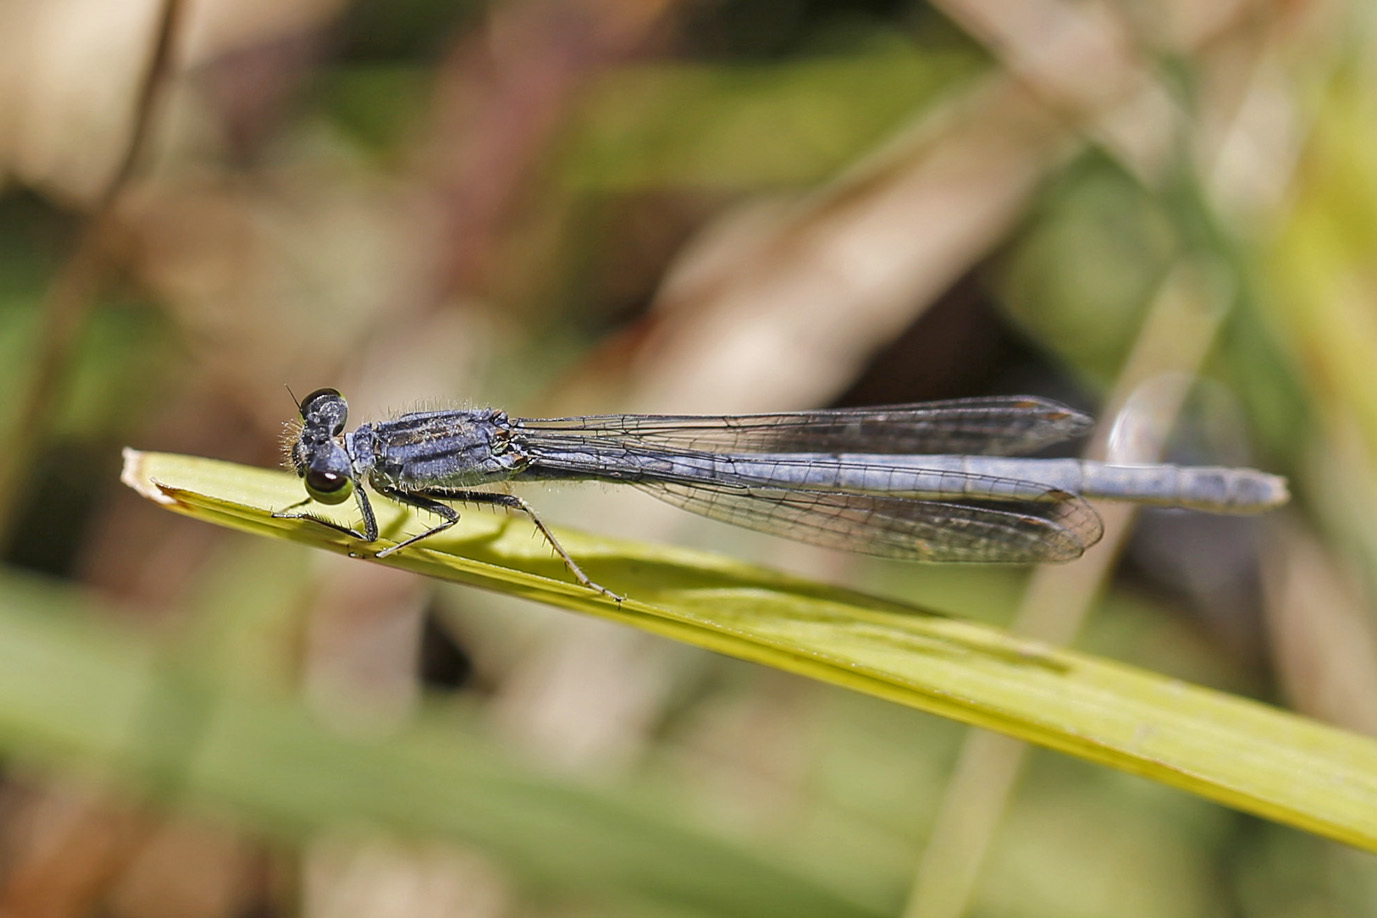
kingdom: Animalia
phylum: Arthropoda
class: Insecta
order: Odonata
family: Coenagrionidae
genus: Ischnura
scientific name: Ischnura verticalis
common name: Eastern forktail
